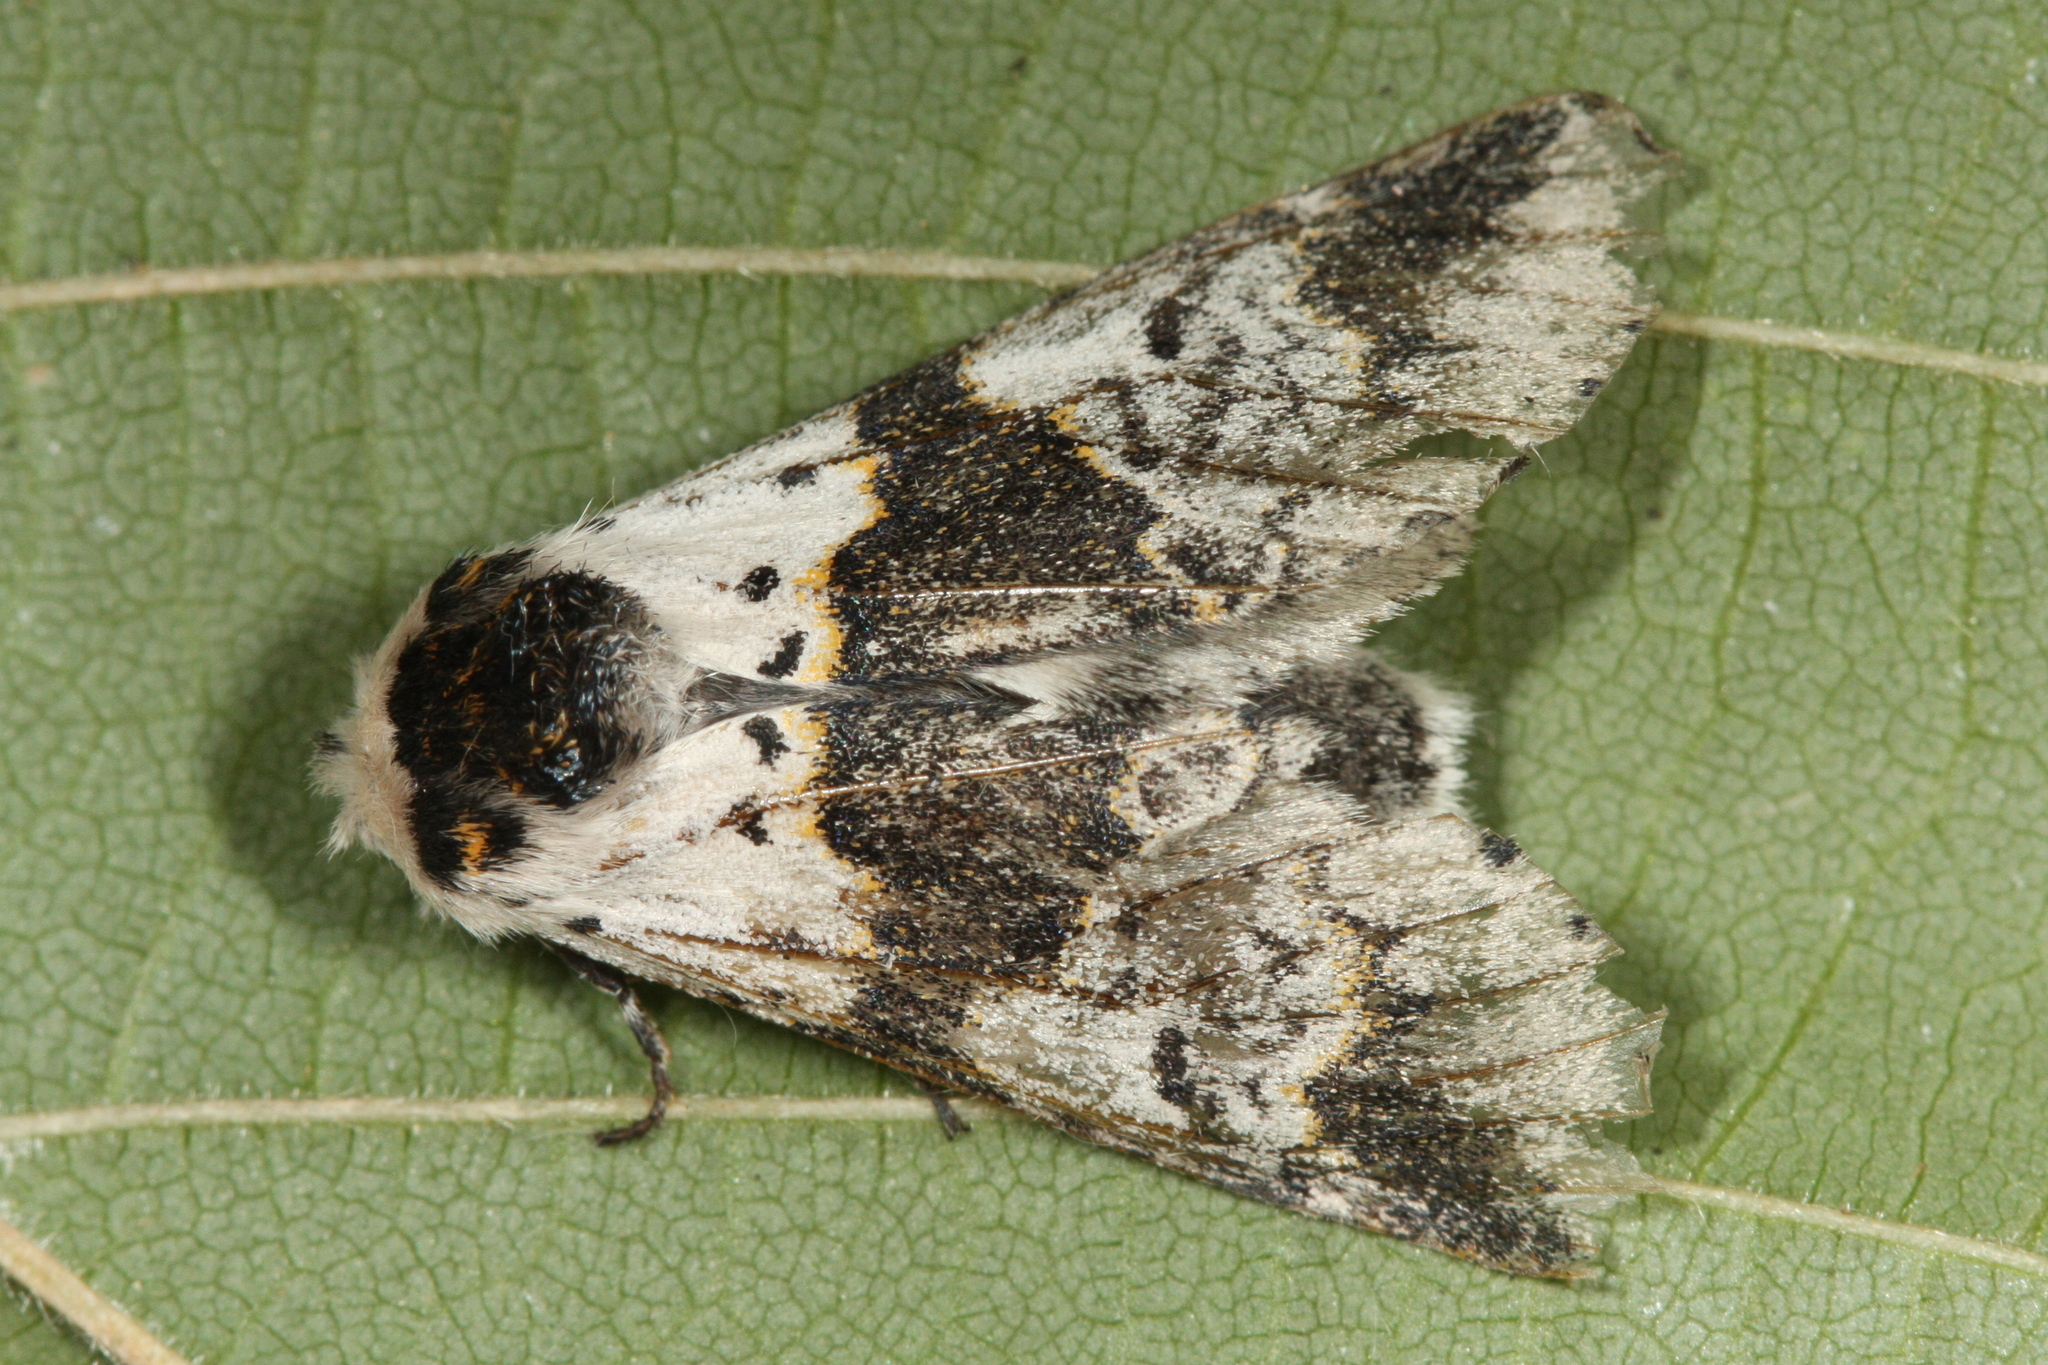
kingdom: Animalia
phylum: Arthropoda
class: Insecta
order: Lepidoptera
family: Notodontidae
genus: Furcula
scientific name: Furcula bicuspis
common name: Alder kitten
